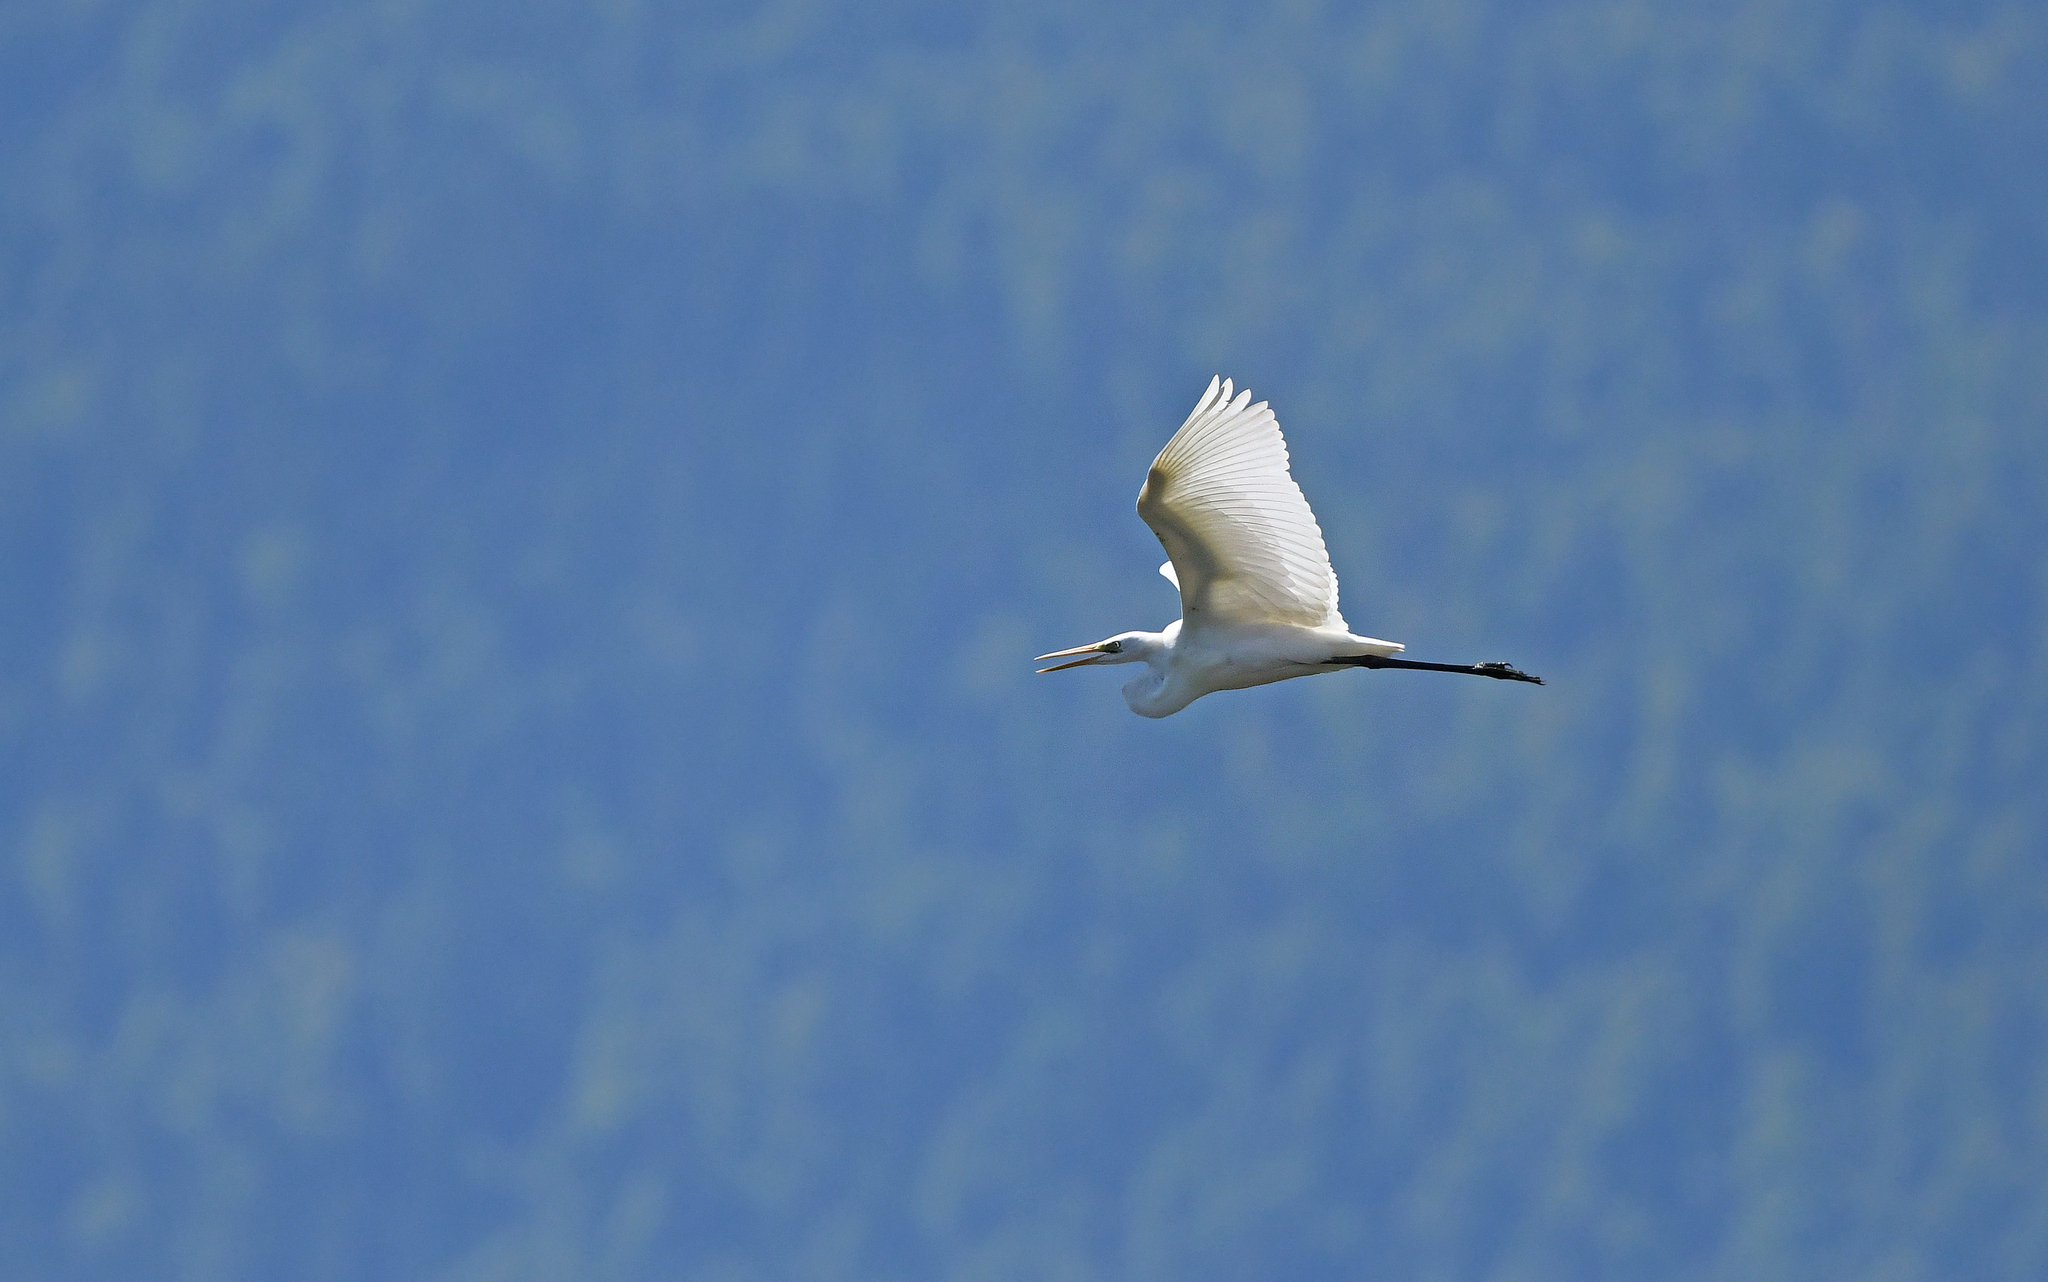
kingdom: Animalia
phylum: Chordata
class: Aves
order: Pelecaniformes
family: Ardeidae
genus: Ardea
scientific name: Ardea alba
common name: Great egret
